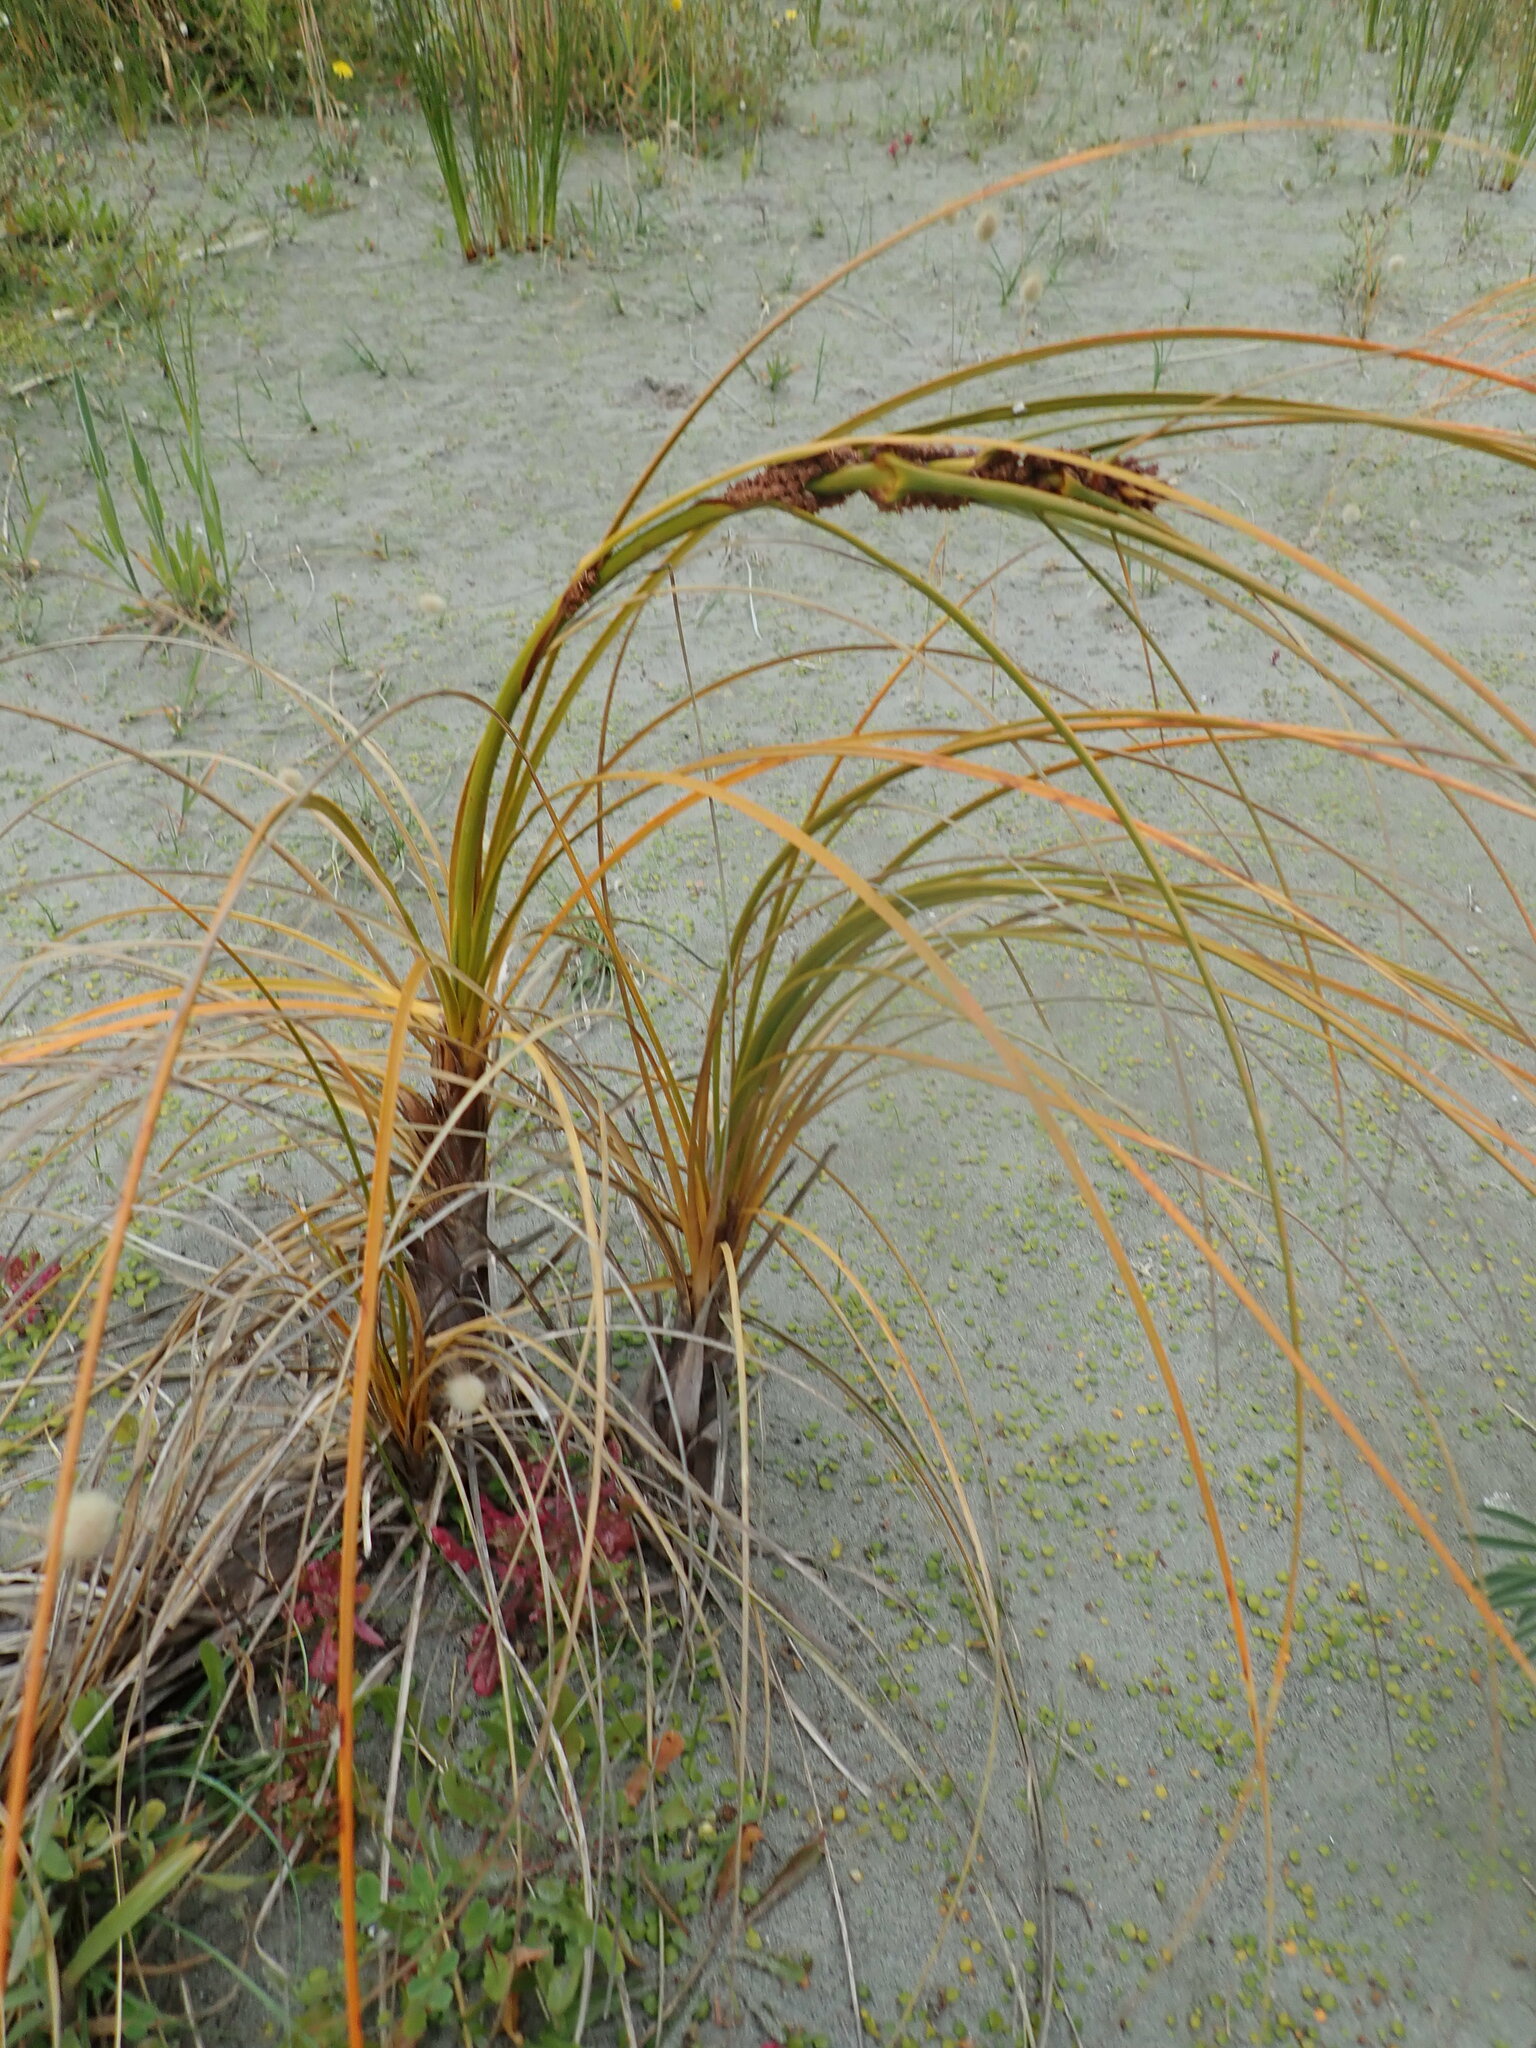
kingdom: Plantae
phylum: Tracheophyta
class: Liliopsida
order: Poales
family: Cyperaceae
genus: Ficinia
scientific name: Ficinia spiralis
